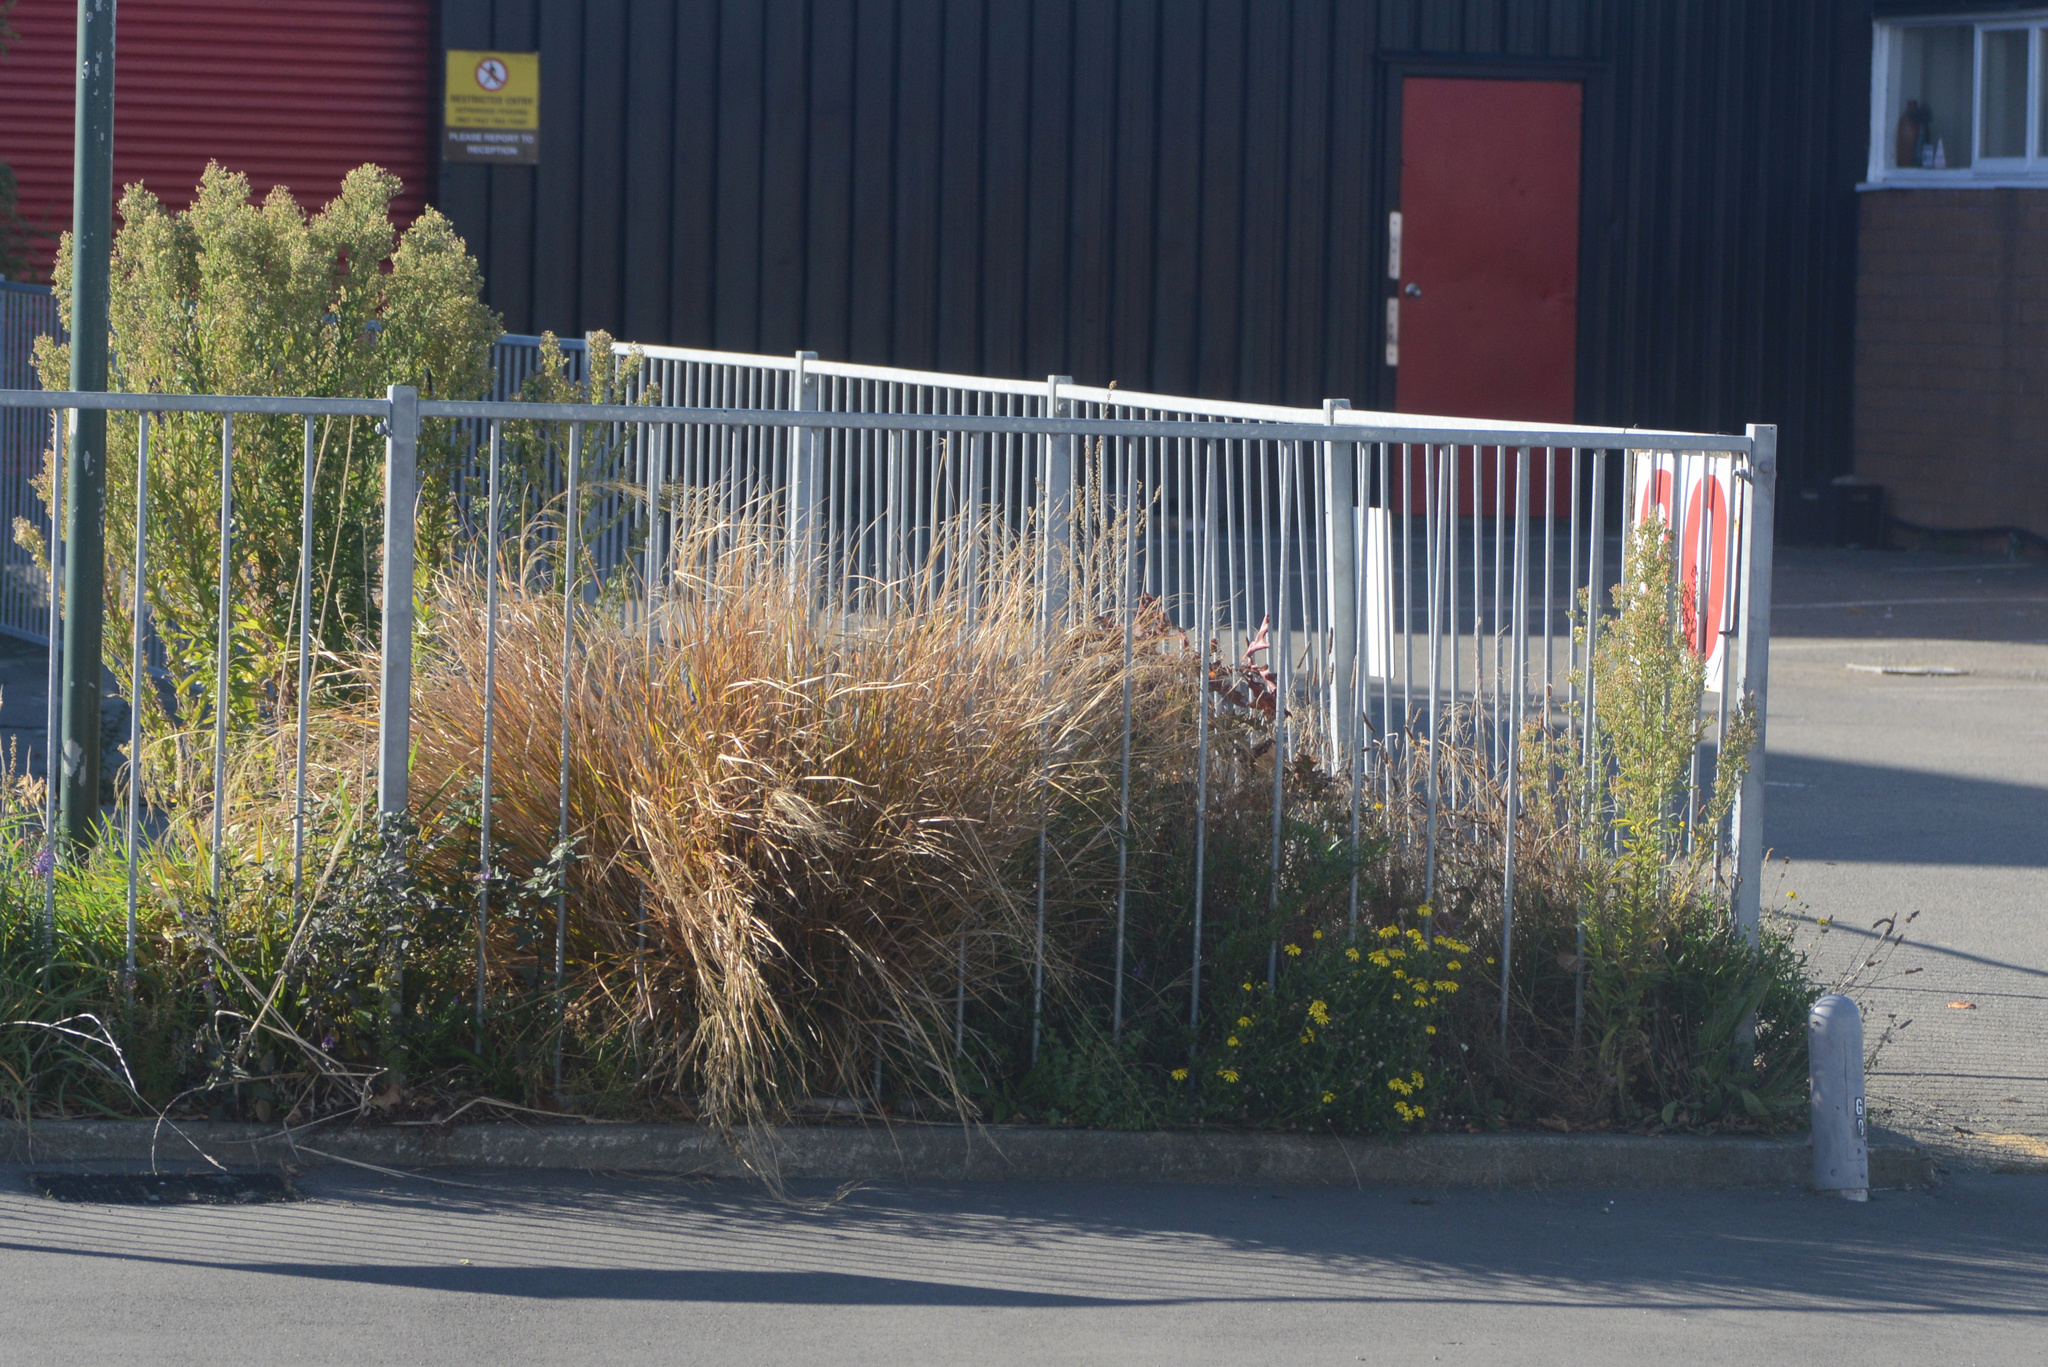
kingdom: Plantae
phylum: Tracheophyta
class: Magnoliopsida
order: Asterales
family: Asteraceae
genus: Senecio
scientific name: Senecio skirrhodon
